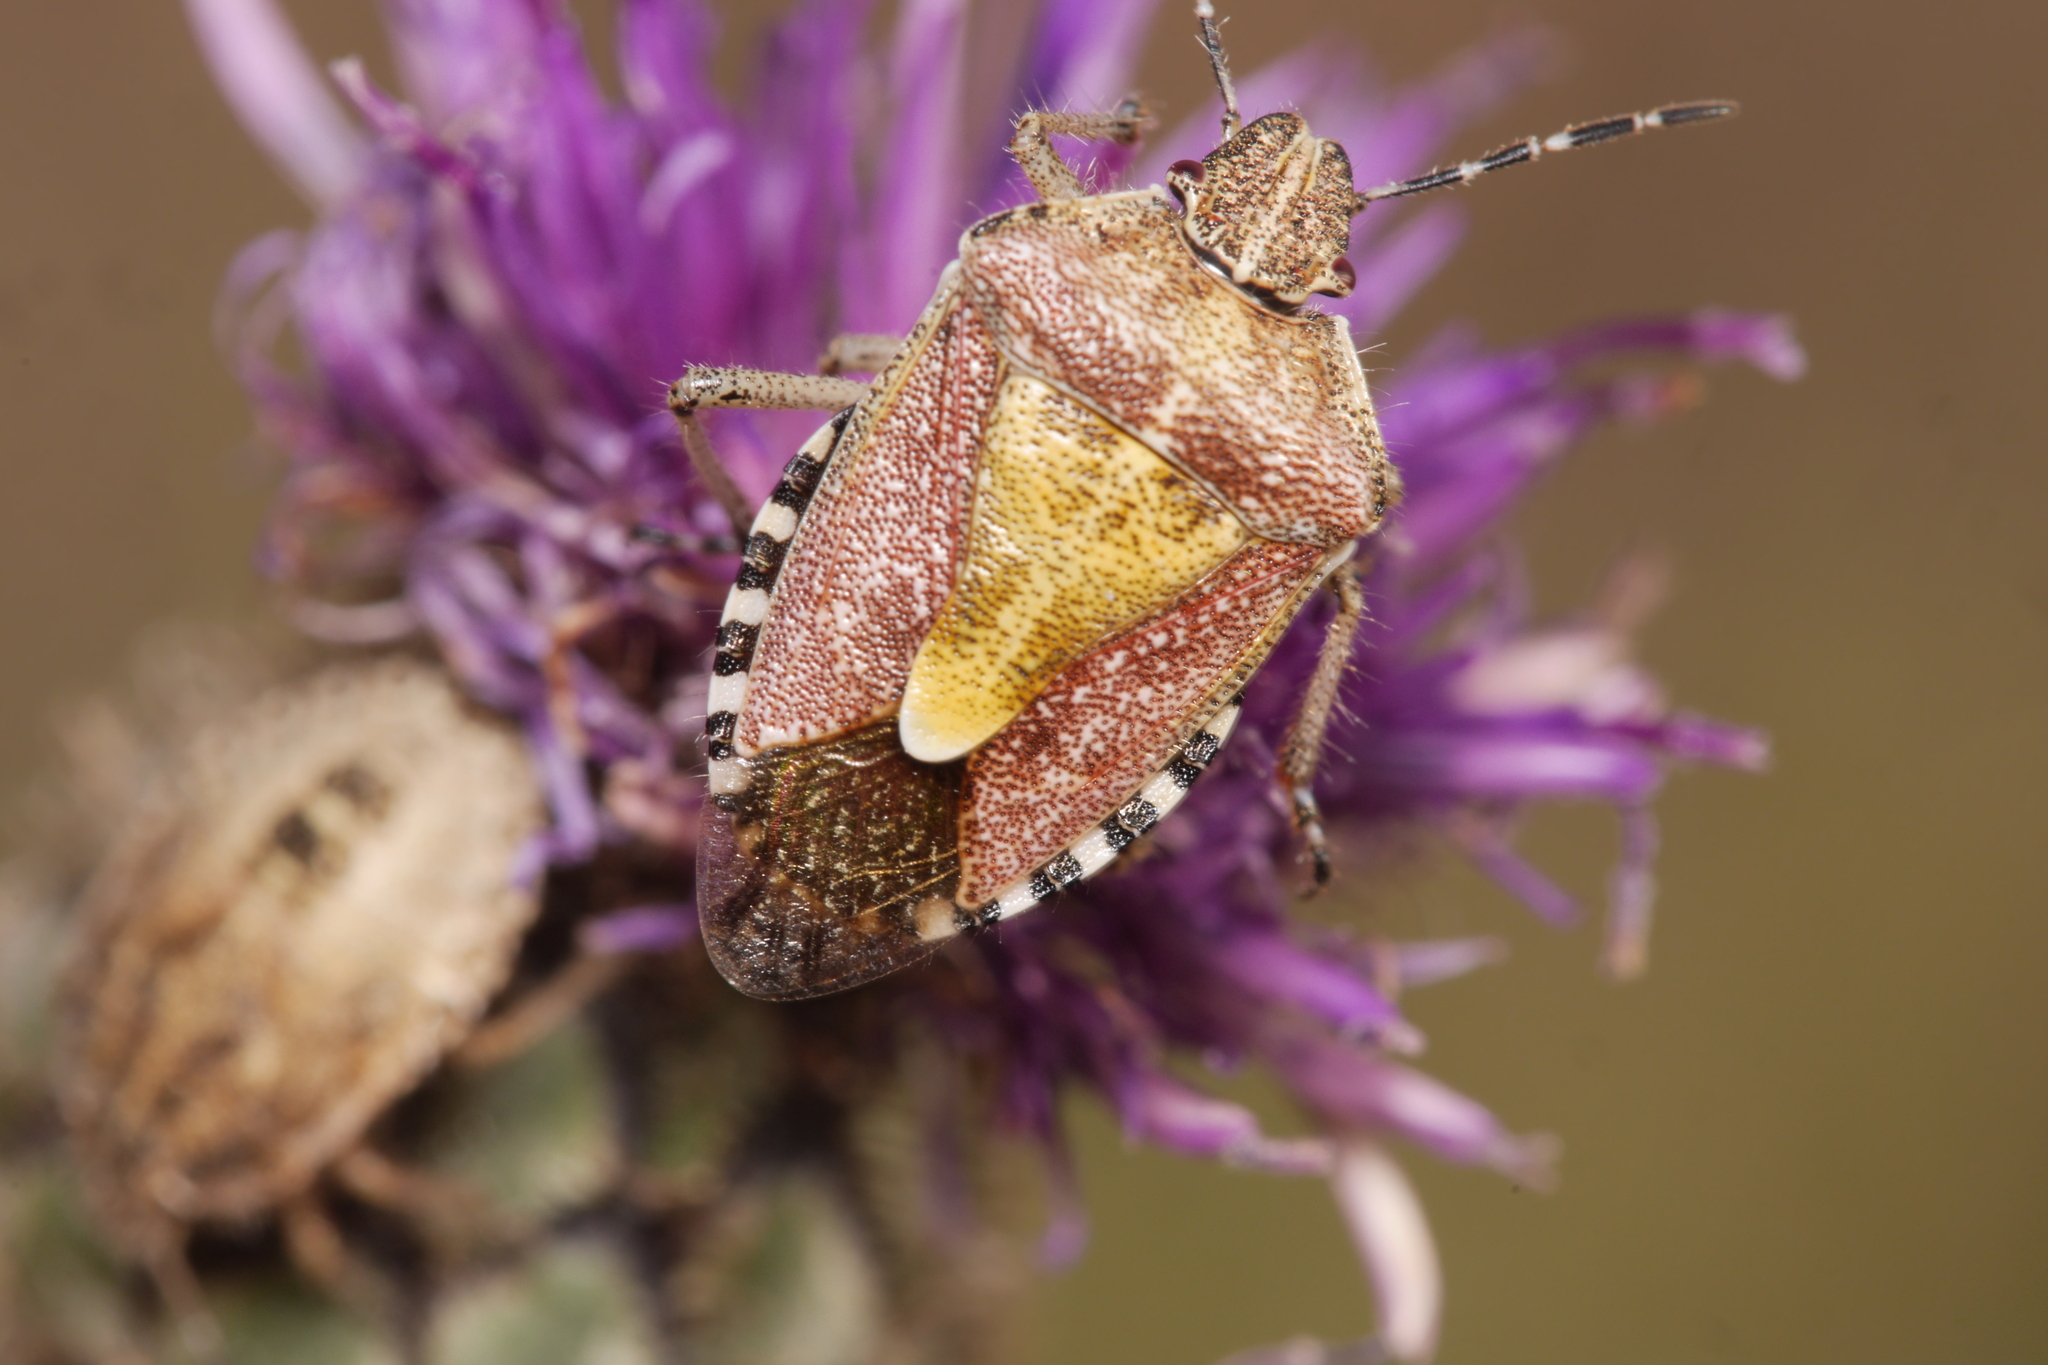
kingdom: Animalia
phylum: Arthropoda
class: Insecta
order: Hemiptera
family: Pentatomidae
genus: Dolycoris
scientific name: Dolycoris baccarum
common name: Sloe bug
